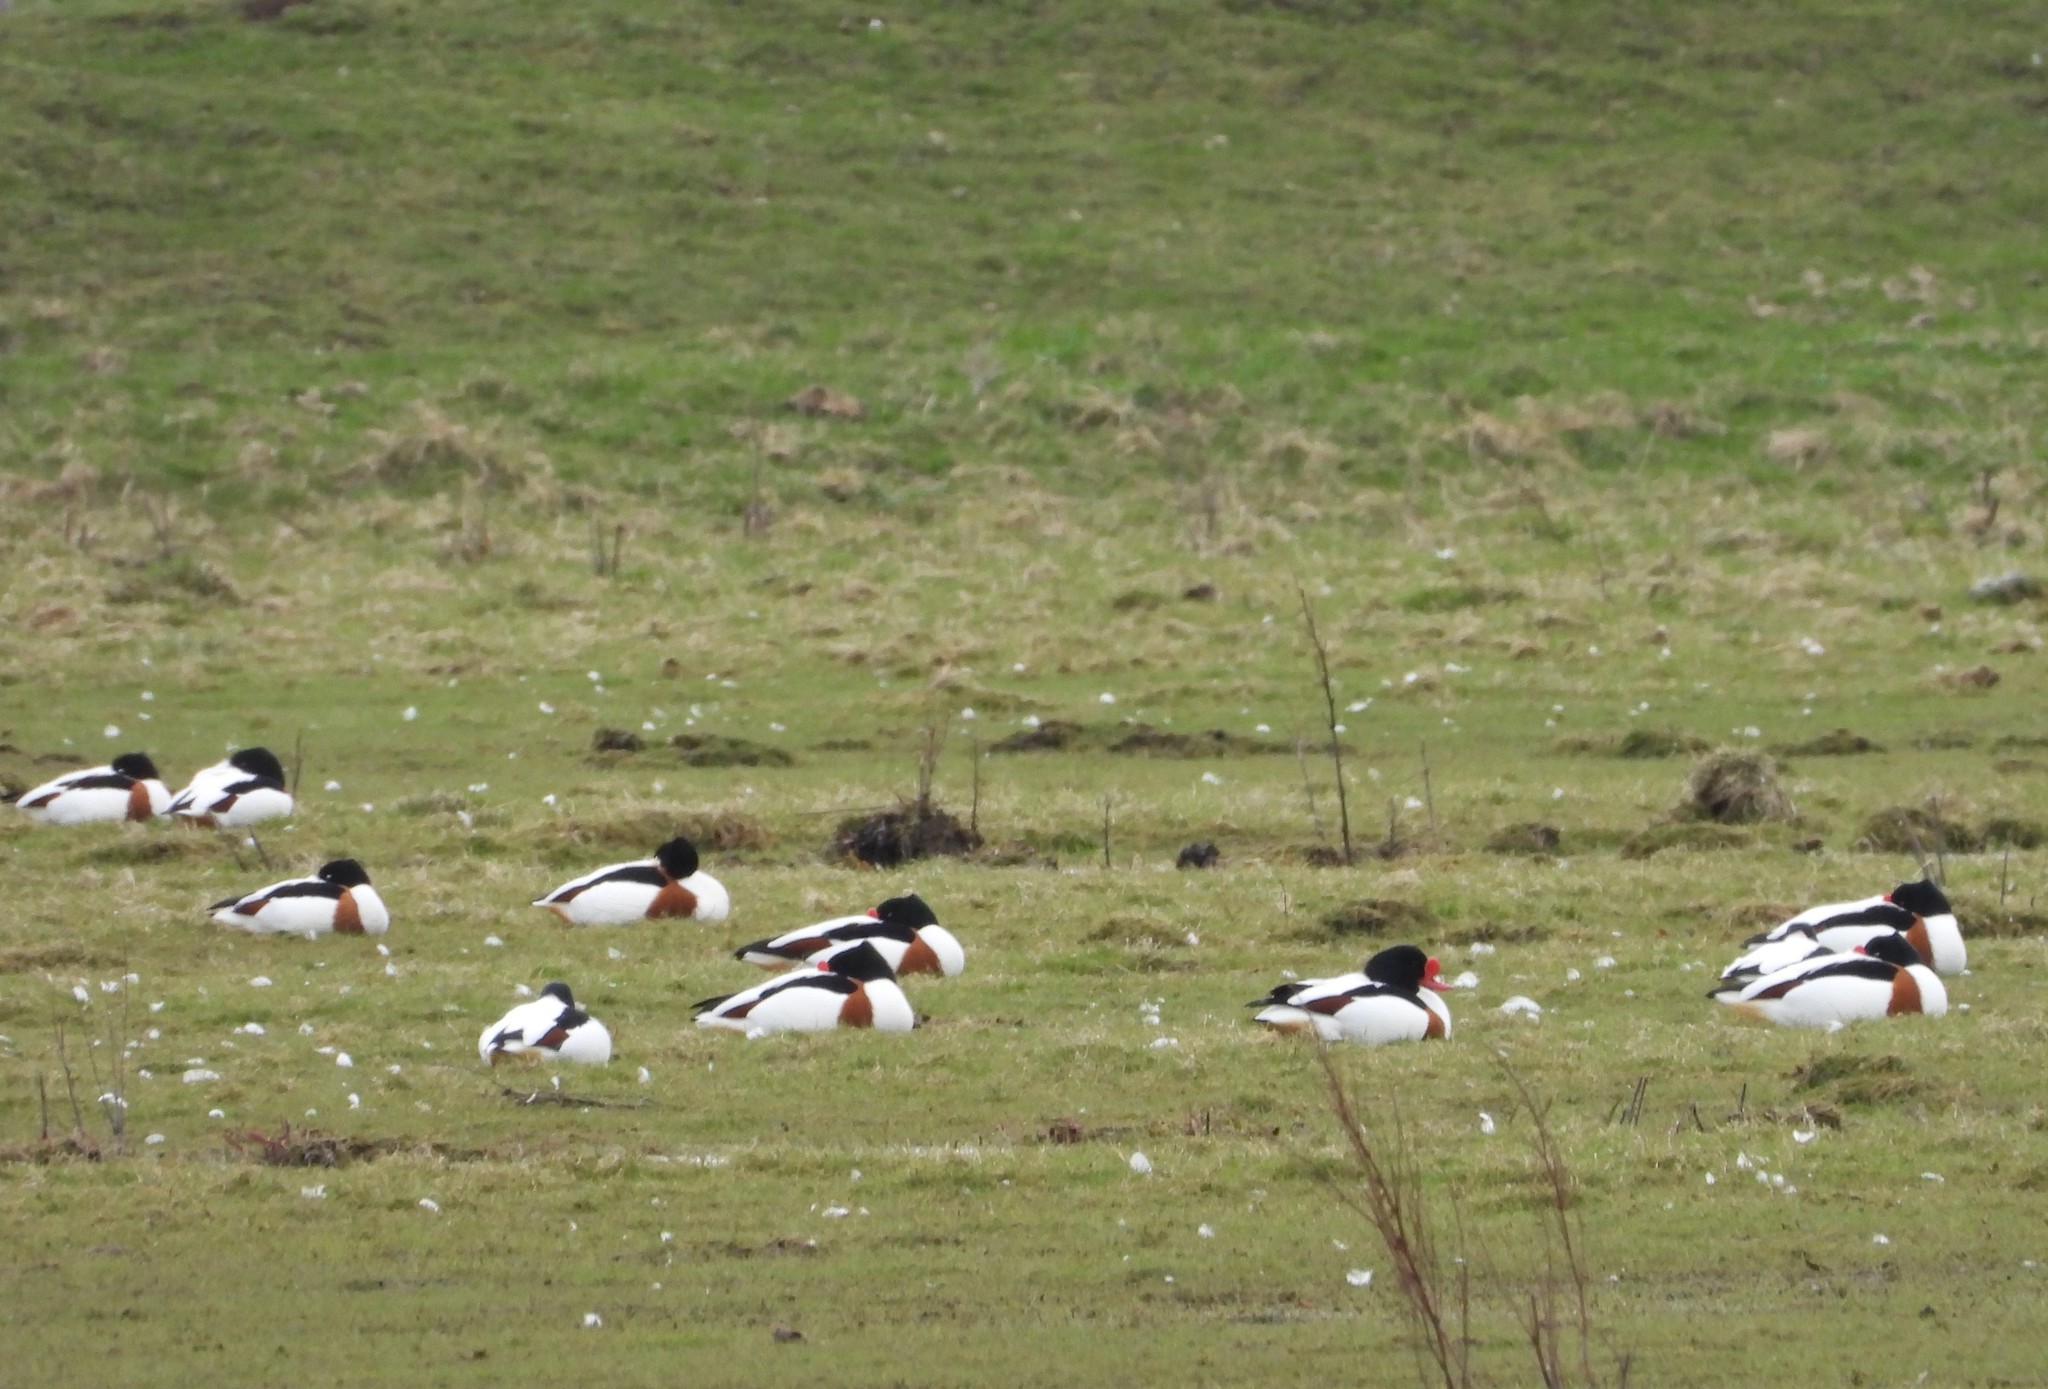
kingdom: Animalia
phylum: Chordata
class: Aves
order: Anseriformes
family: Anatidae
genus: Tadorna
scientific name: Tadorna tadorna
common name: Common shelduck
